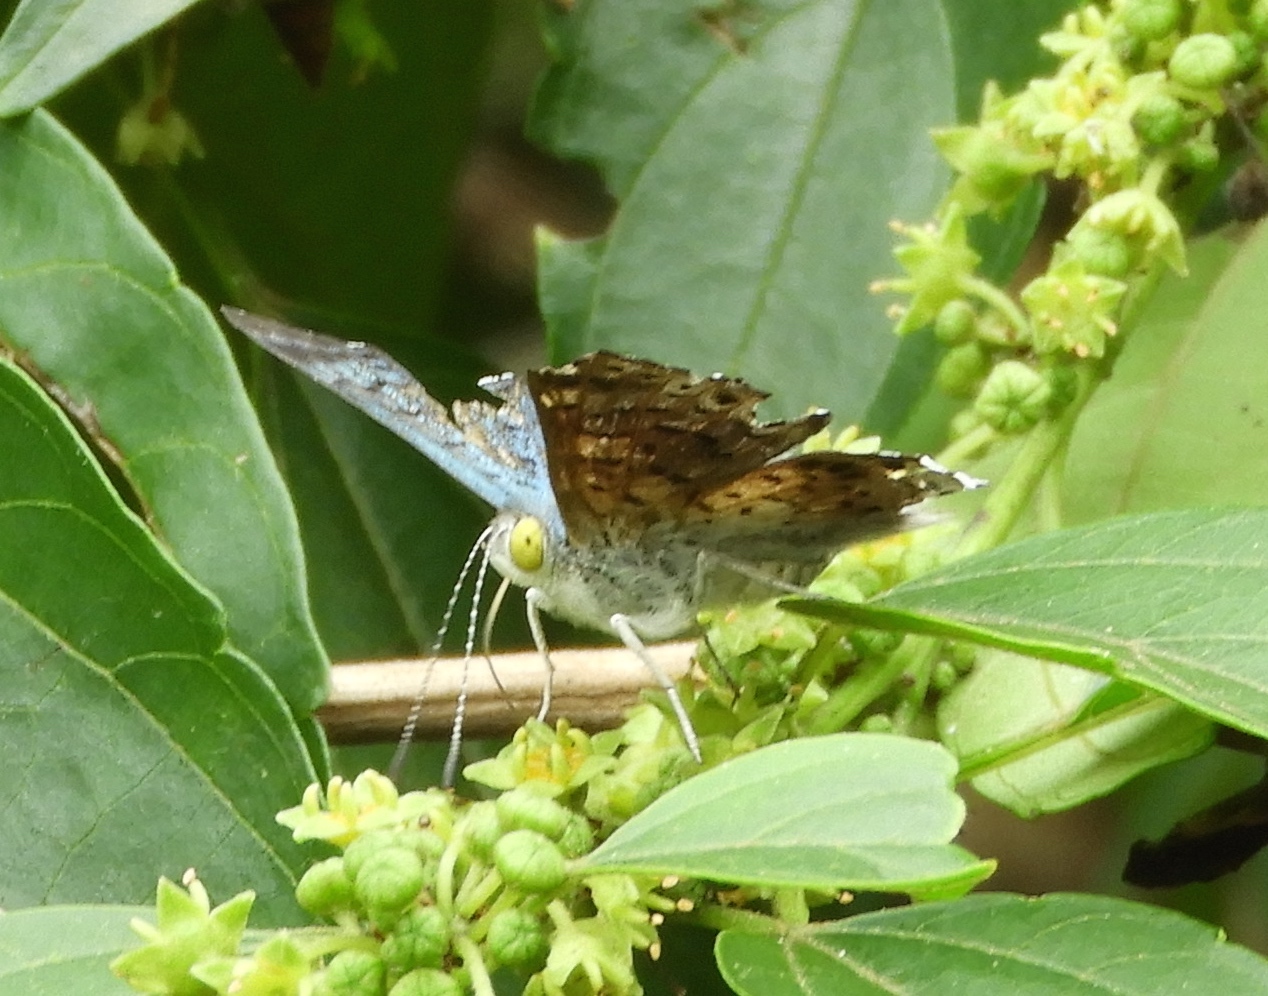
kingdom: Animalia
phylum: Arthropoda
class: Insecta
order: Lepidoptera
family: Riodinidae
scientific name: Riodinidae
